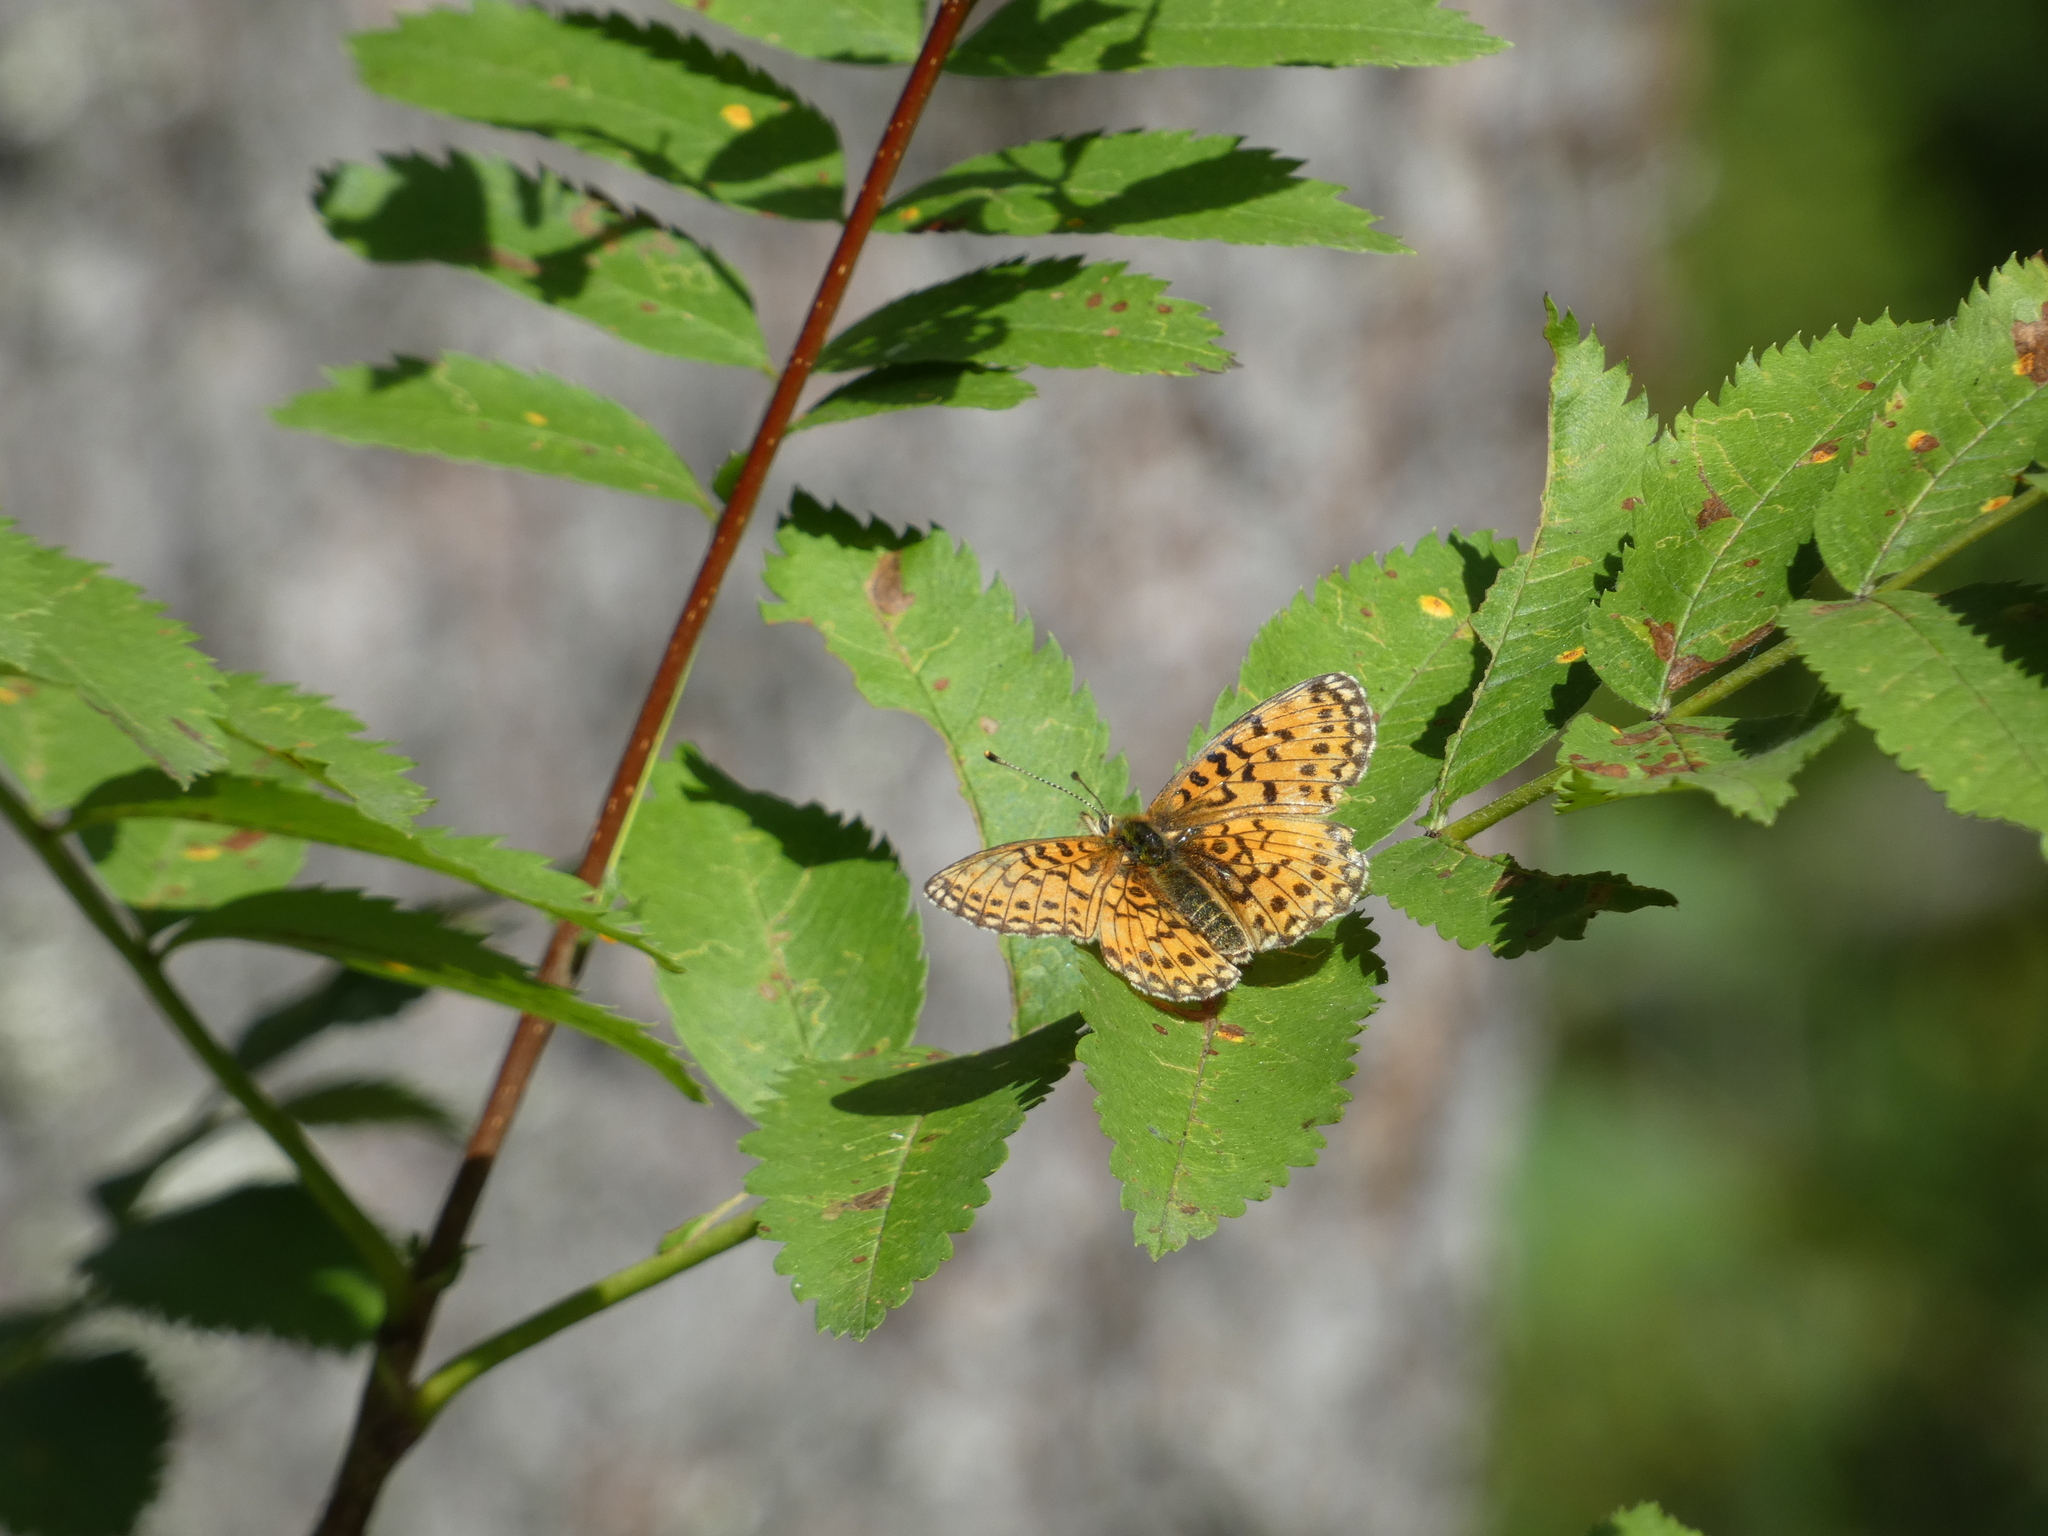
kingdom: Animalia
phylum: Arthropoda
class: Insecta
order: Lepidoptera
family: Nymphalidae
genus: Boloria
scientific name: Boloria selene
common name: Small pearl-bordered fritillary
